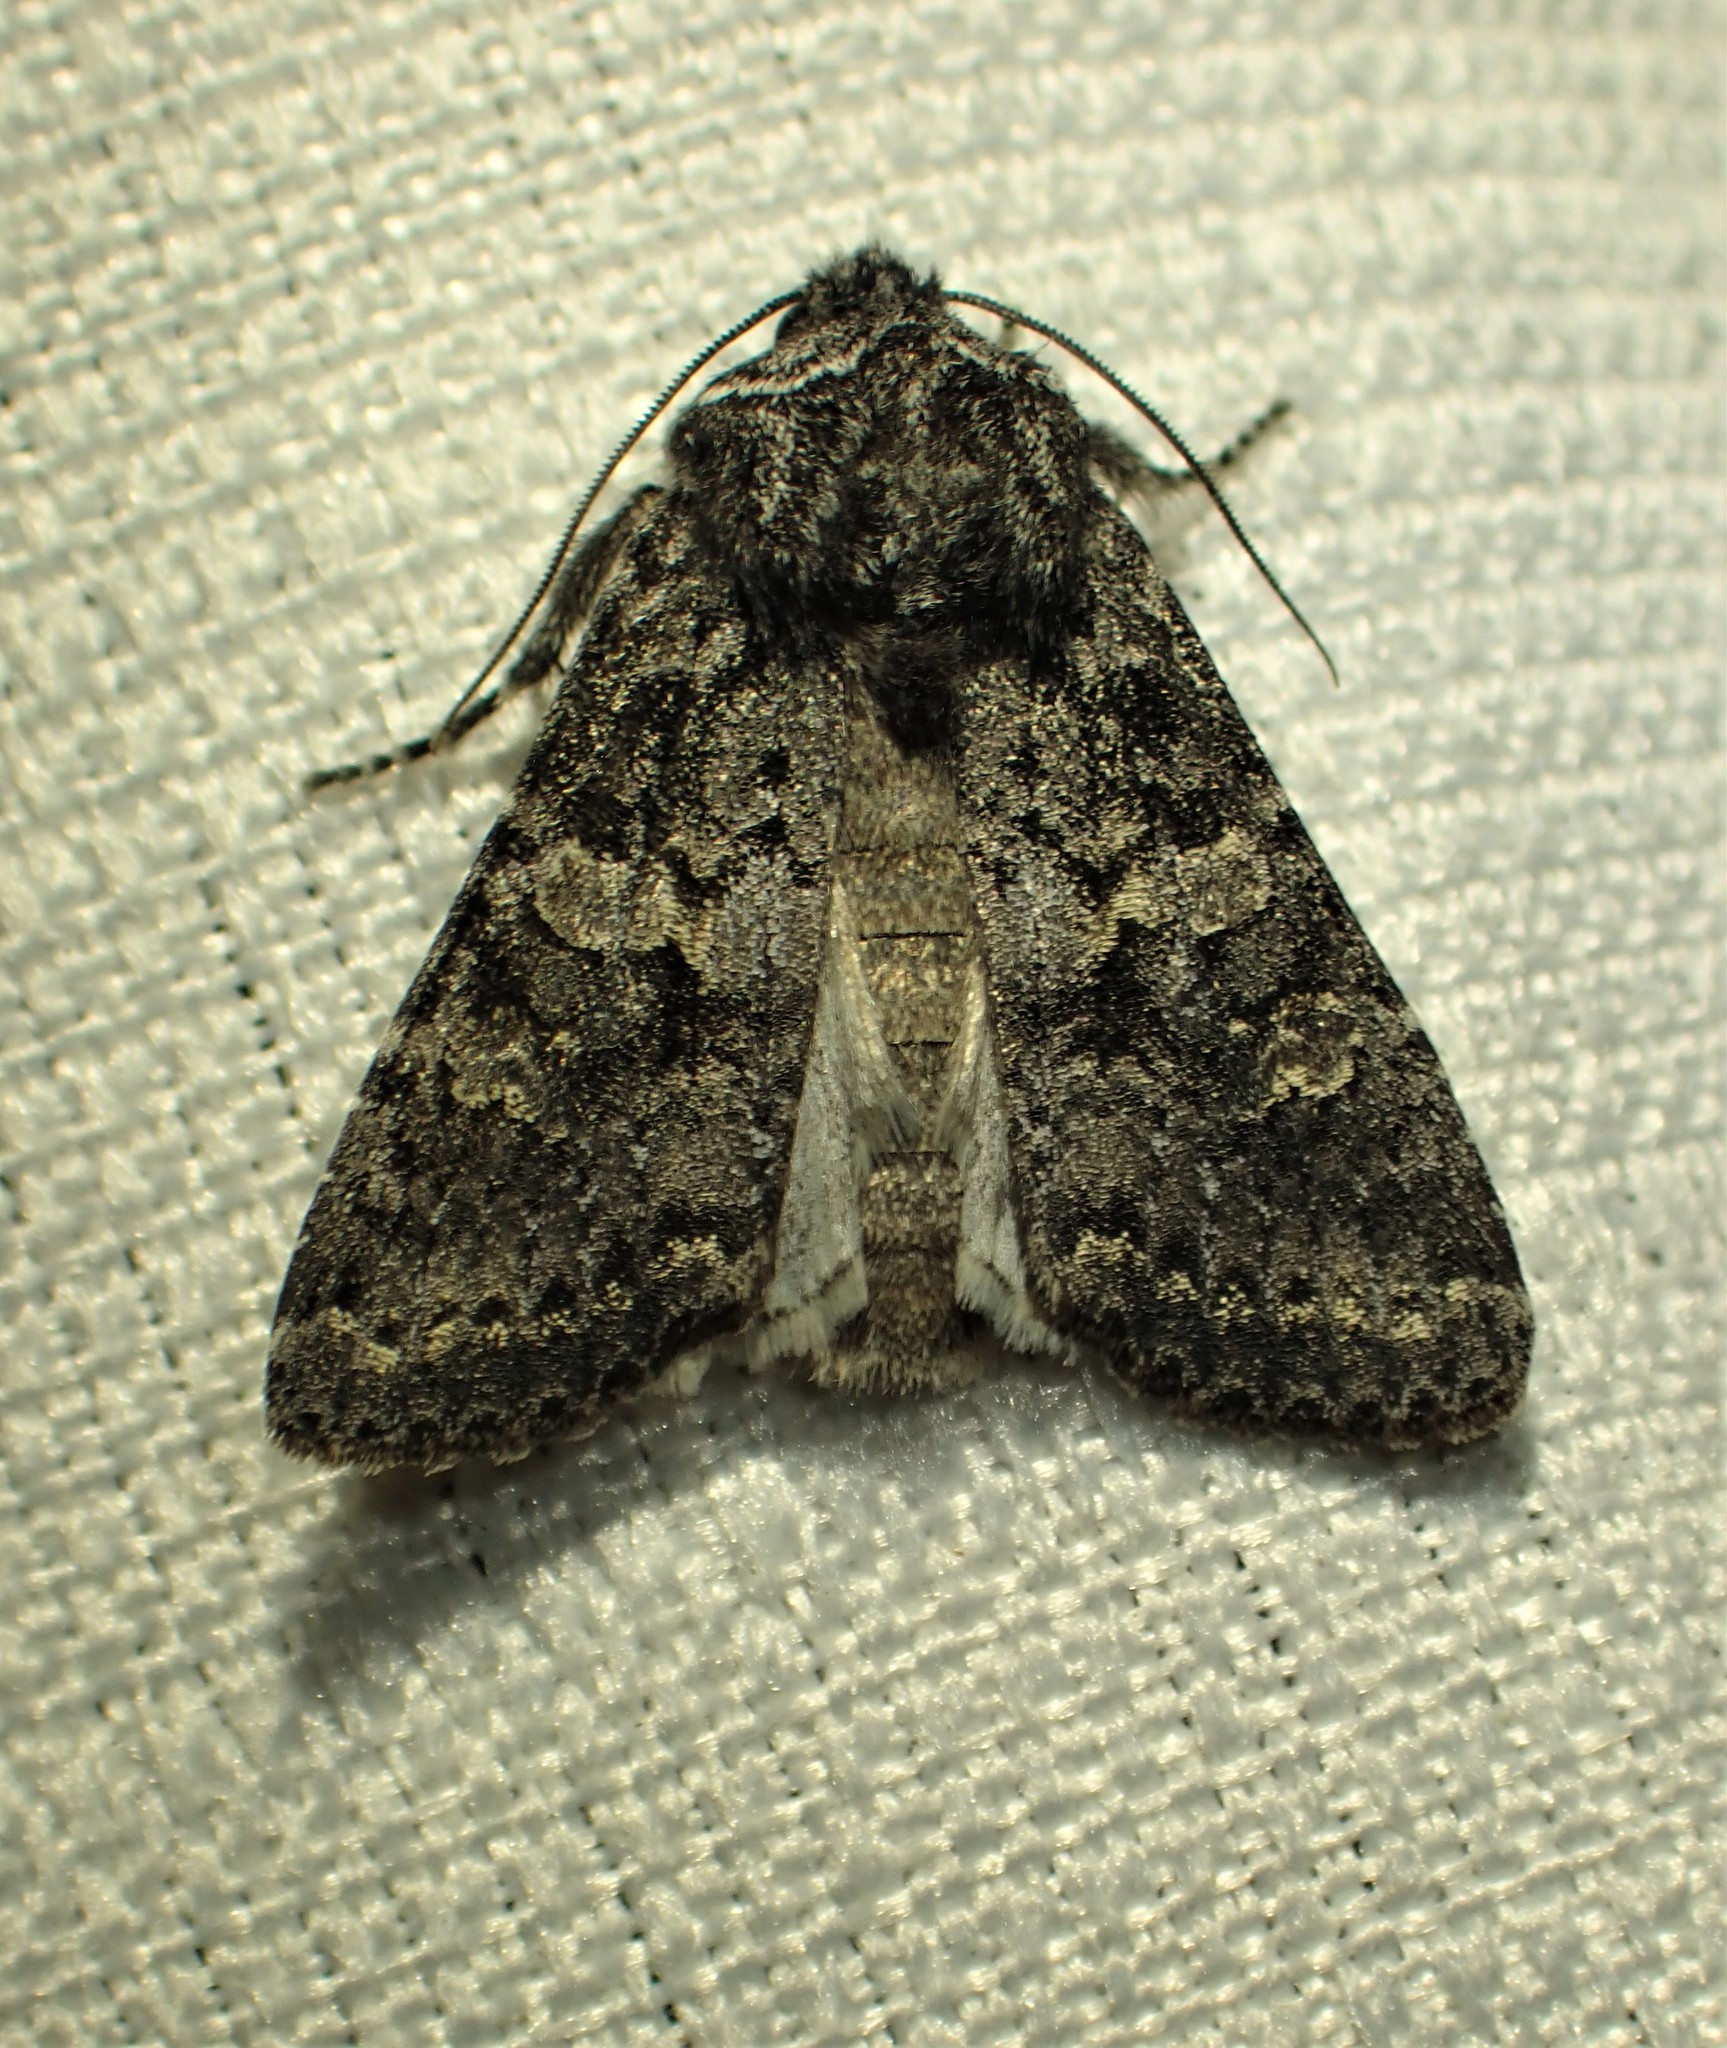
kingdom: Animalia
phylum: Arthropoda
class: Insecta
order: Lepidoptera
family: Noctuidae
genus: Egira
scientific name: Egira dolosa
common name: Lined black aspen cat.
